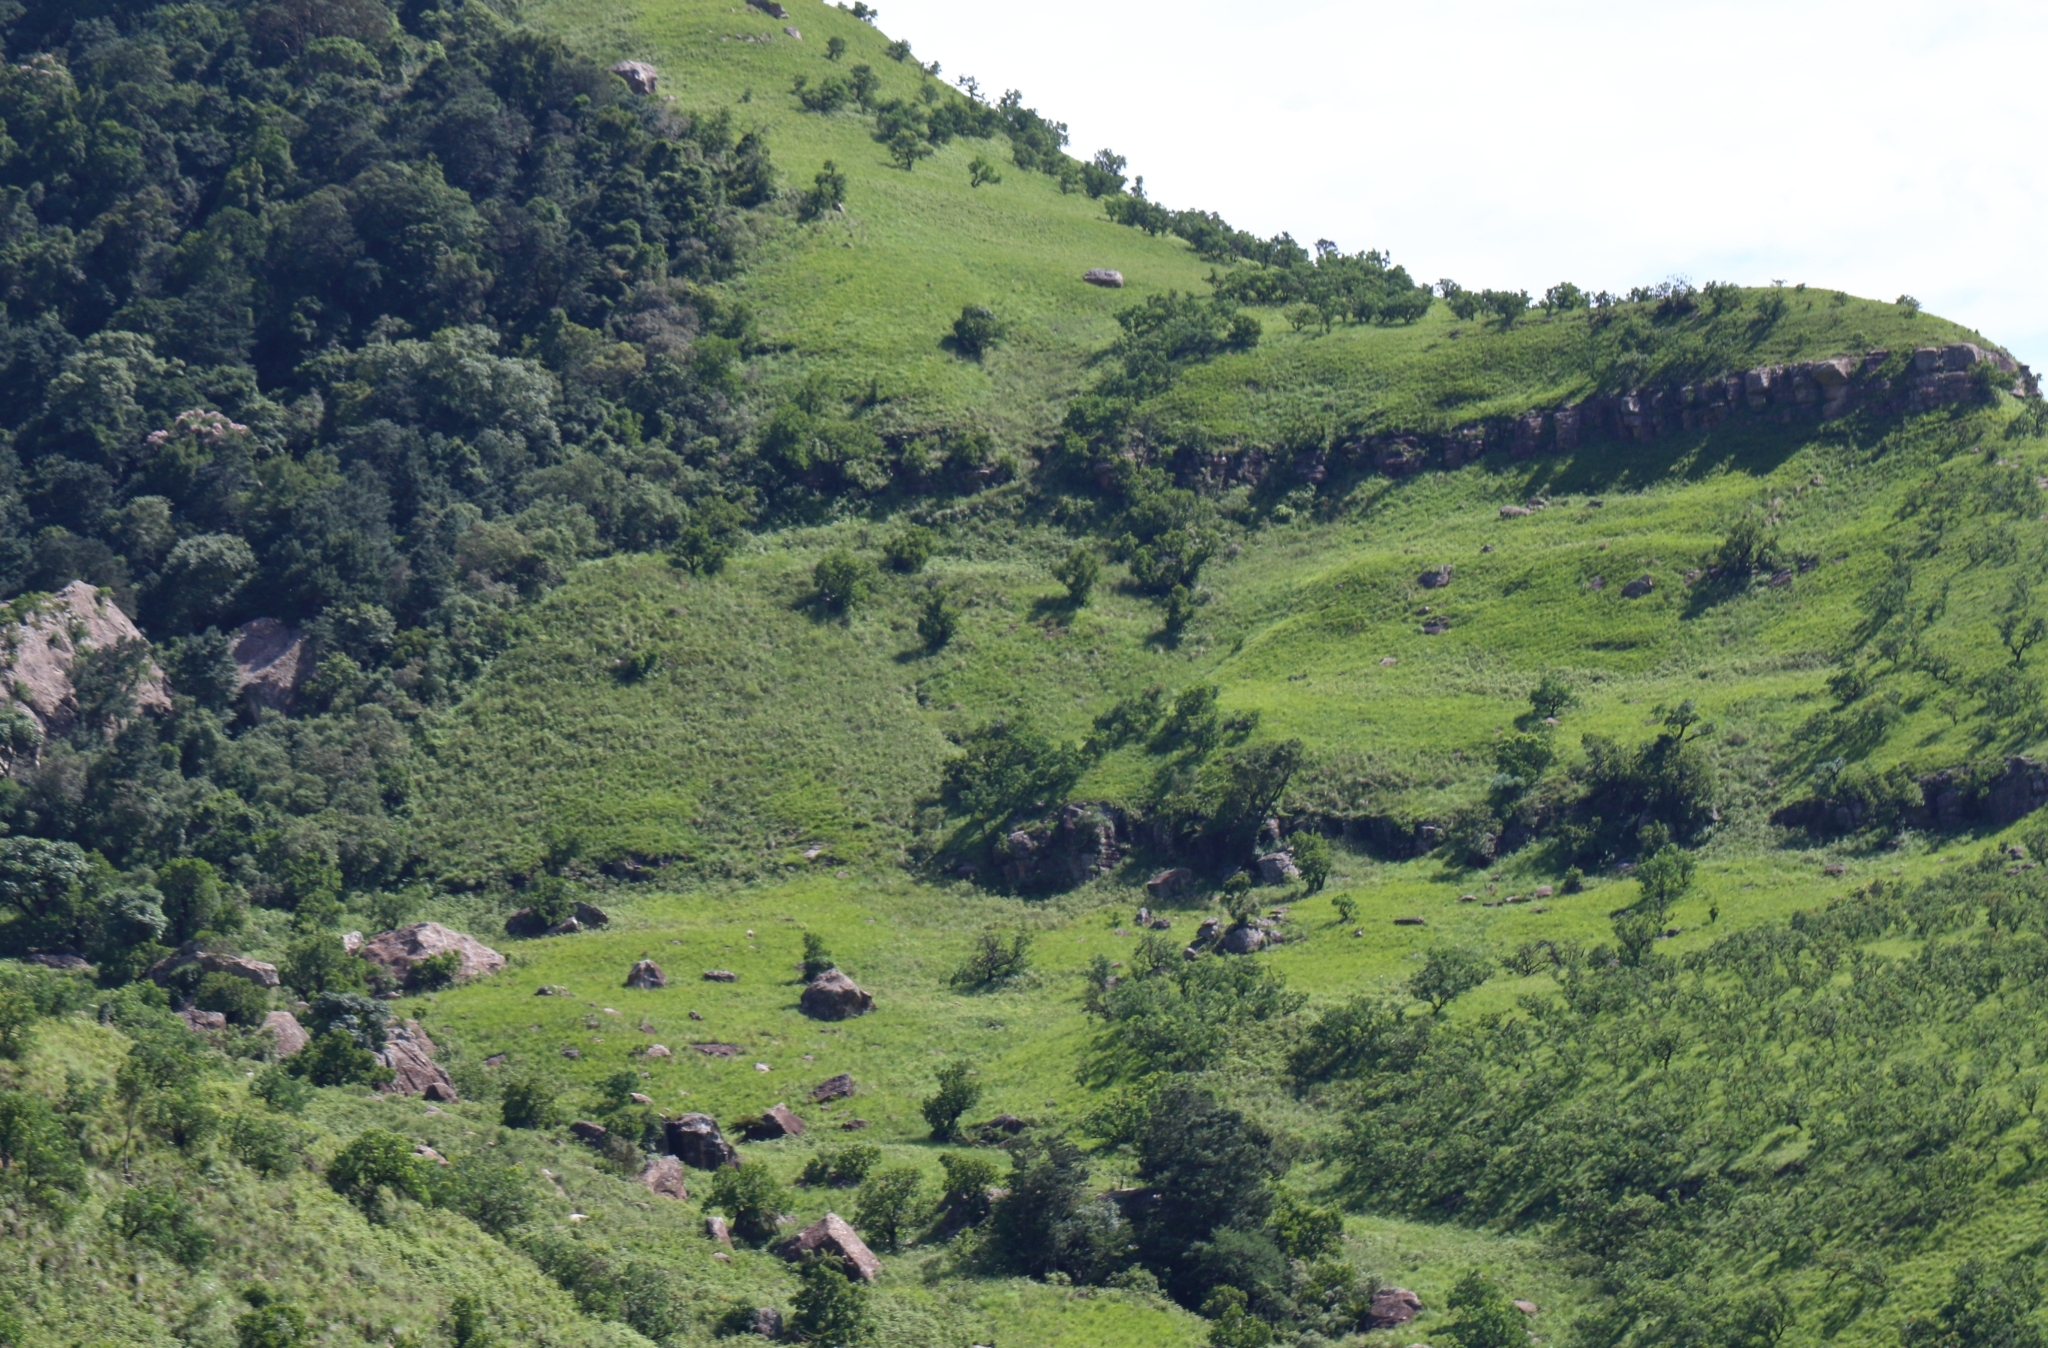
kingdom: Plantae
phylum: Tracheophyta
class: Magnoliopsida
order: Proteales
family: Proteaceae
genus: Protea
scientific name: Protea caffra
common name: Common sugarbush
